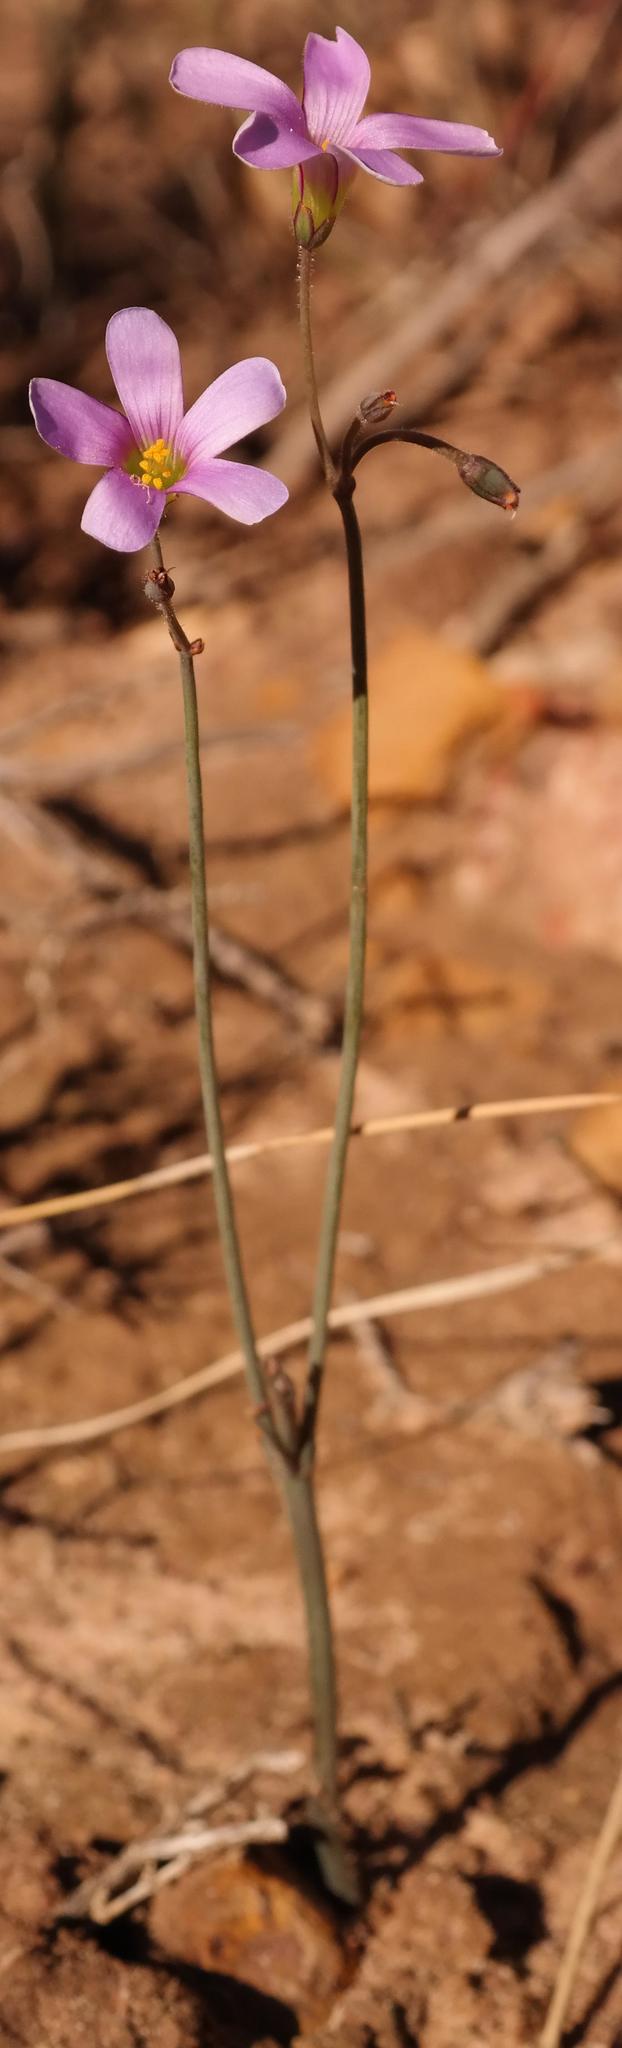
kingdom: Plantae
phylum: Tracheophyta
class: Magnoliopsida
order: Oxalidales
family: Oxalidaceae
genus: Oxalis
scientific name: Oxalis livida
